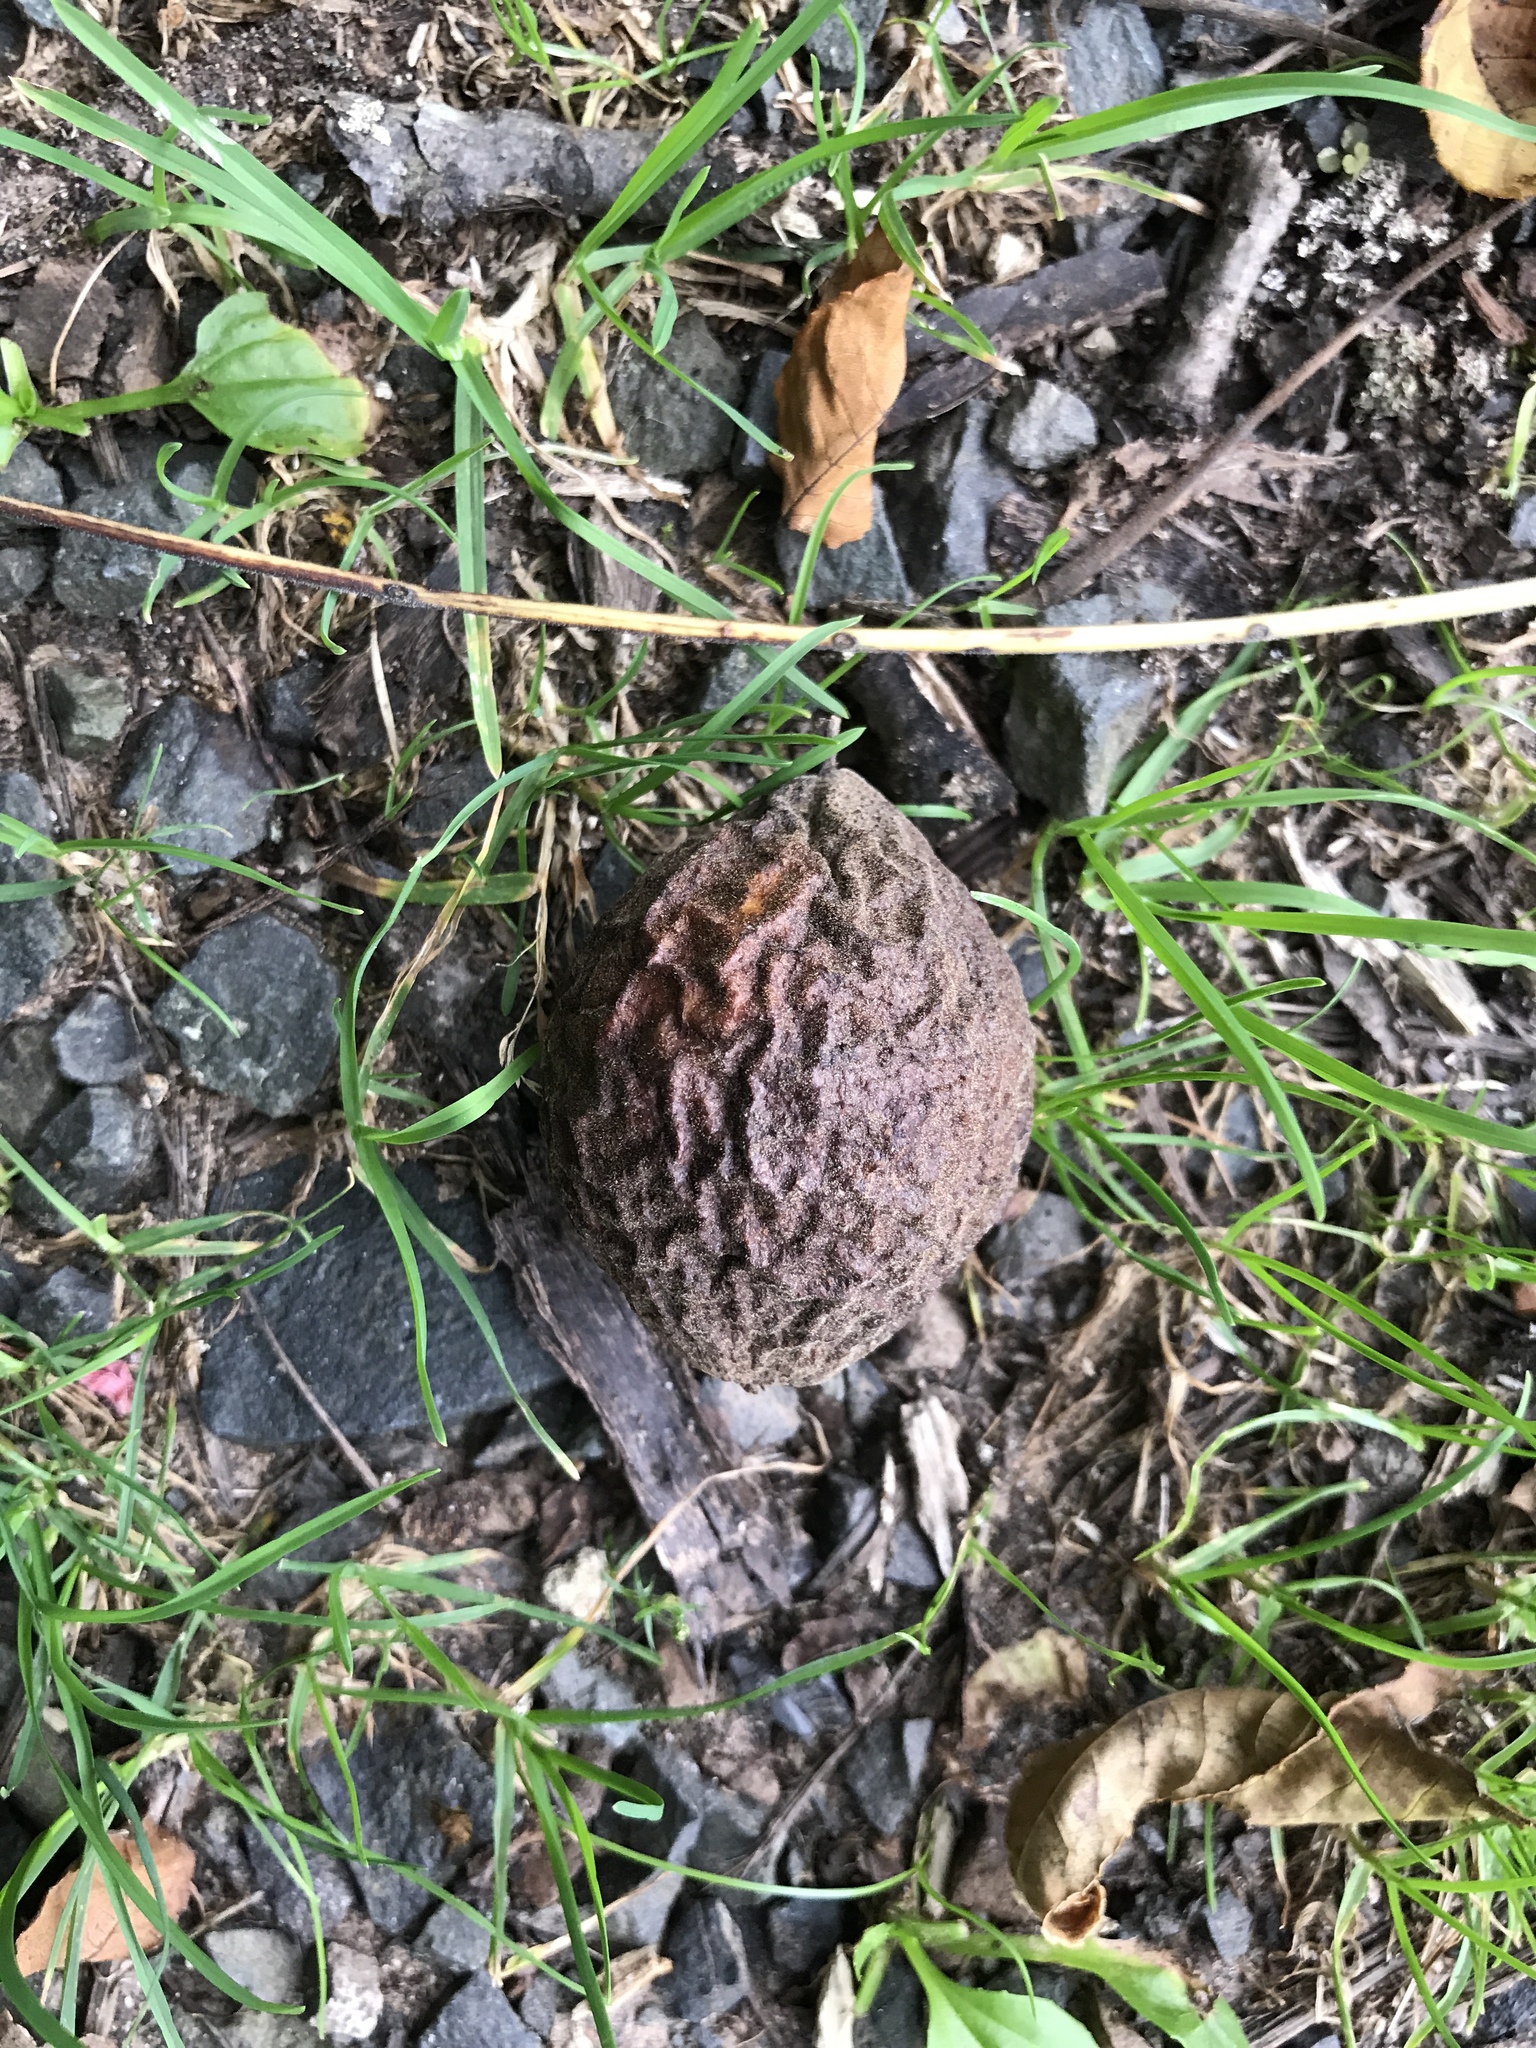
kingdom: Plantae
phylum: Tracheophyta
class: Magnoliopsida
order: Fagales
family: Juglandaceae
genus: Juglans
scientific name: Juglans nigra
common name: Black walnut
